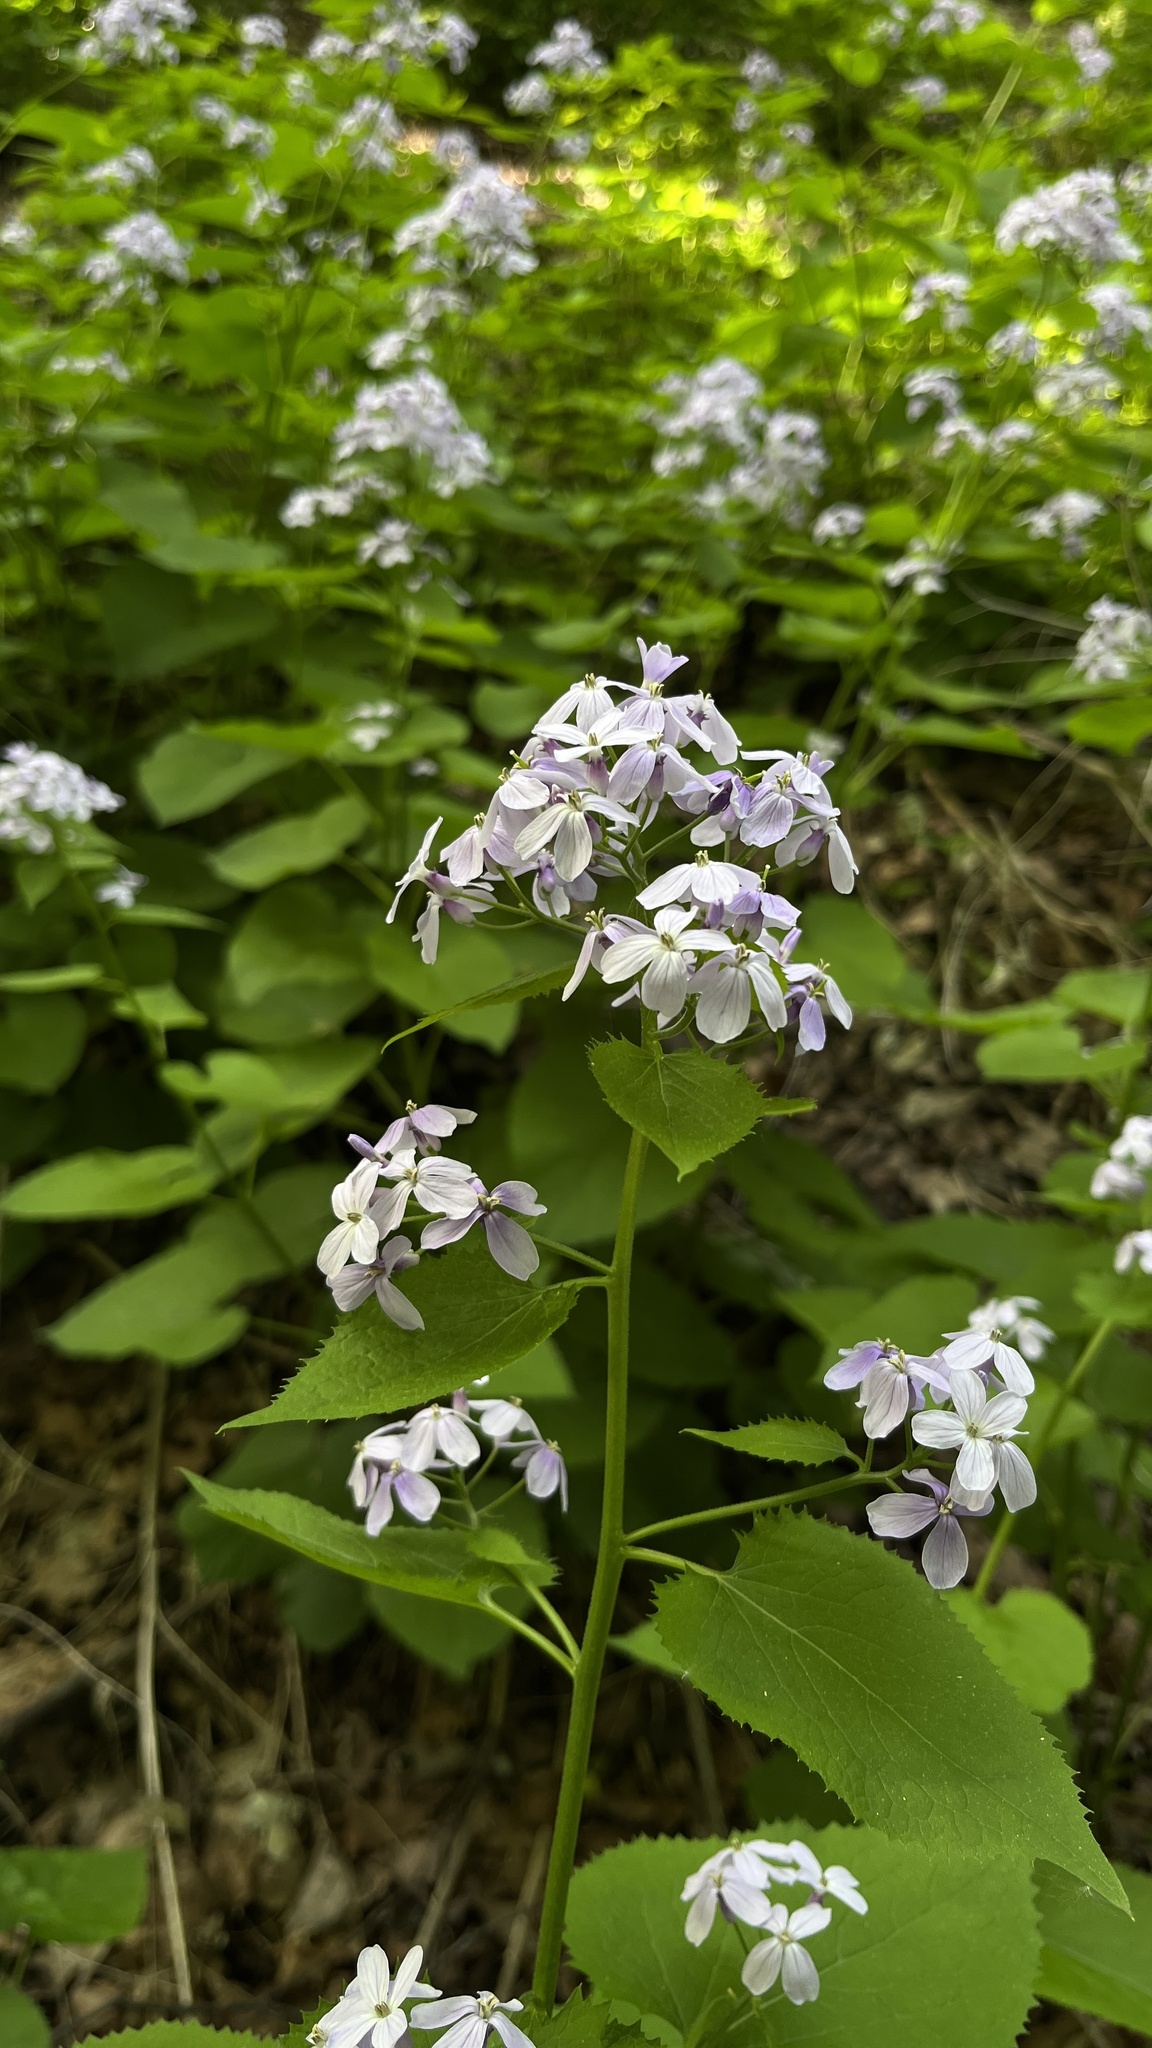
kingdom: Plantae
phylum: Tracheophyta
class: Magnoliopsida
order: Brassicales
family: Brassicaceae
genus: Lunaria
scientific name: Lunaria rediviva
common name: Perennial honesty
